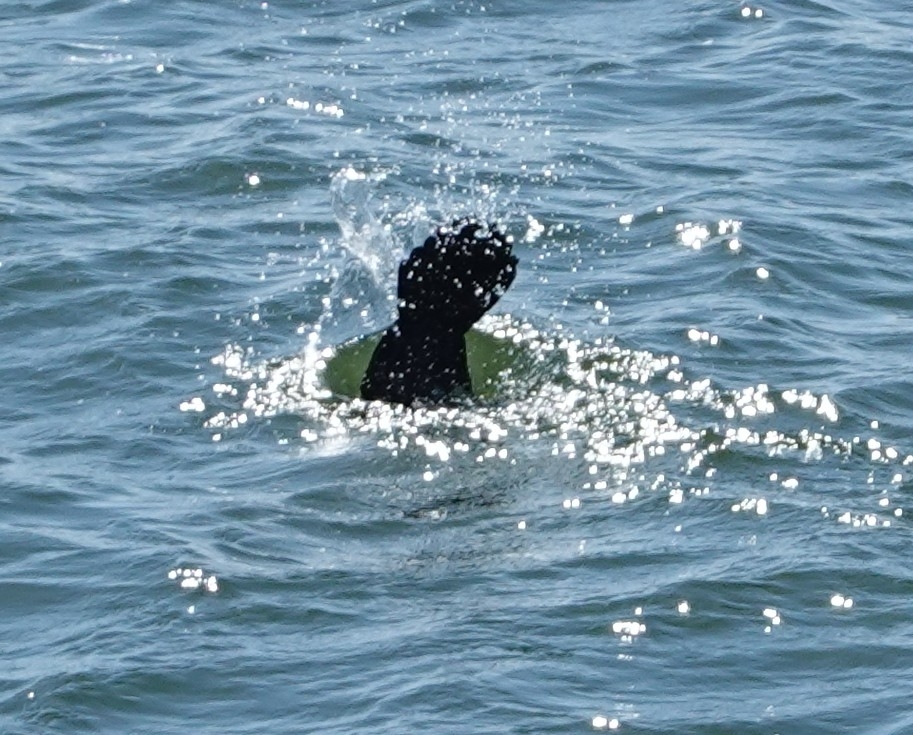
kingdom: Animalia
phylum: Chordata
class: Aves
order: Suliformes
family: Phalacrocoracidae
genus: Phalacrocorax
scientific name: Phalacrocorax carbo
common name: Great cormorant
